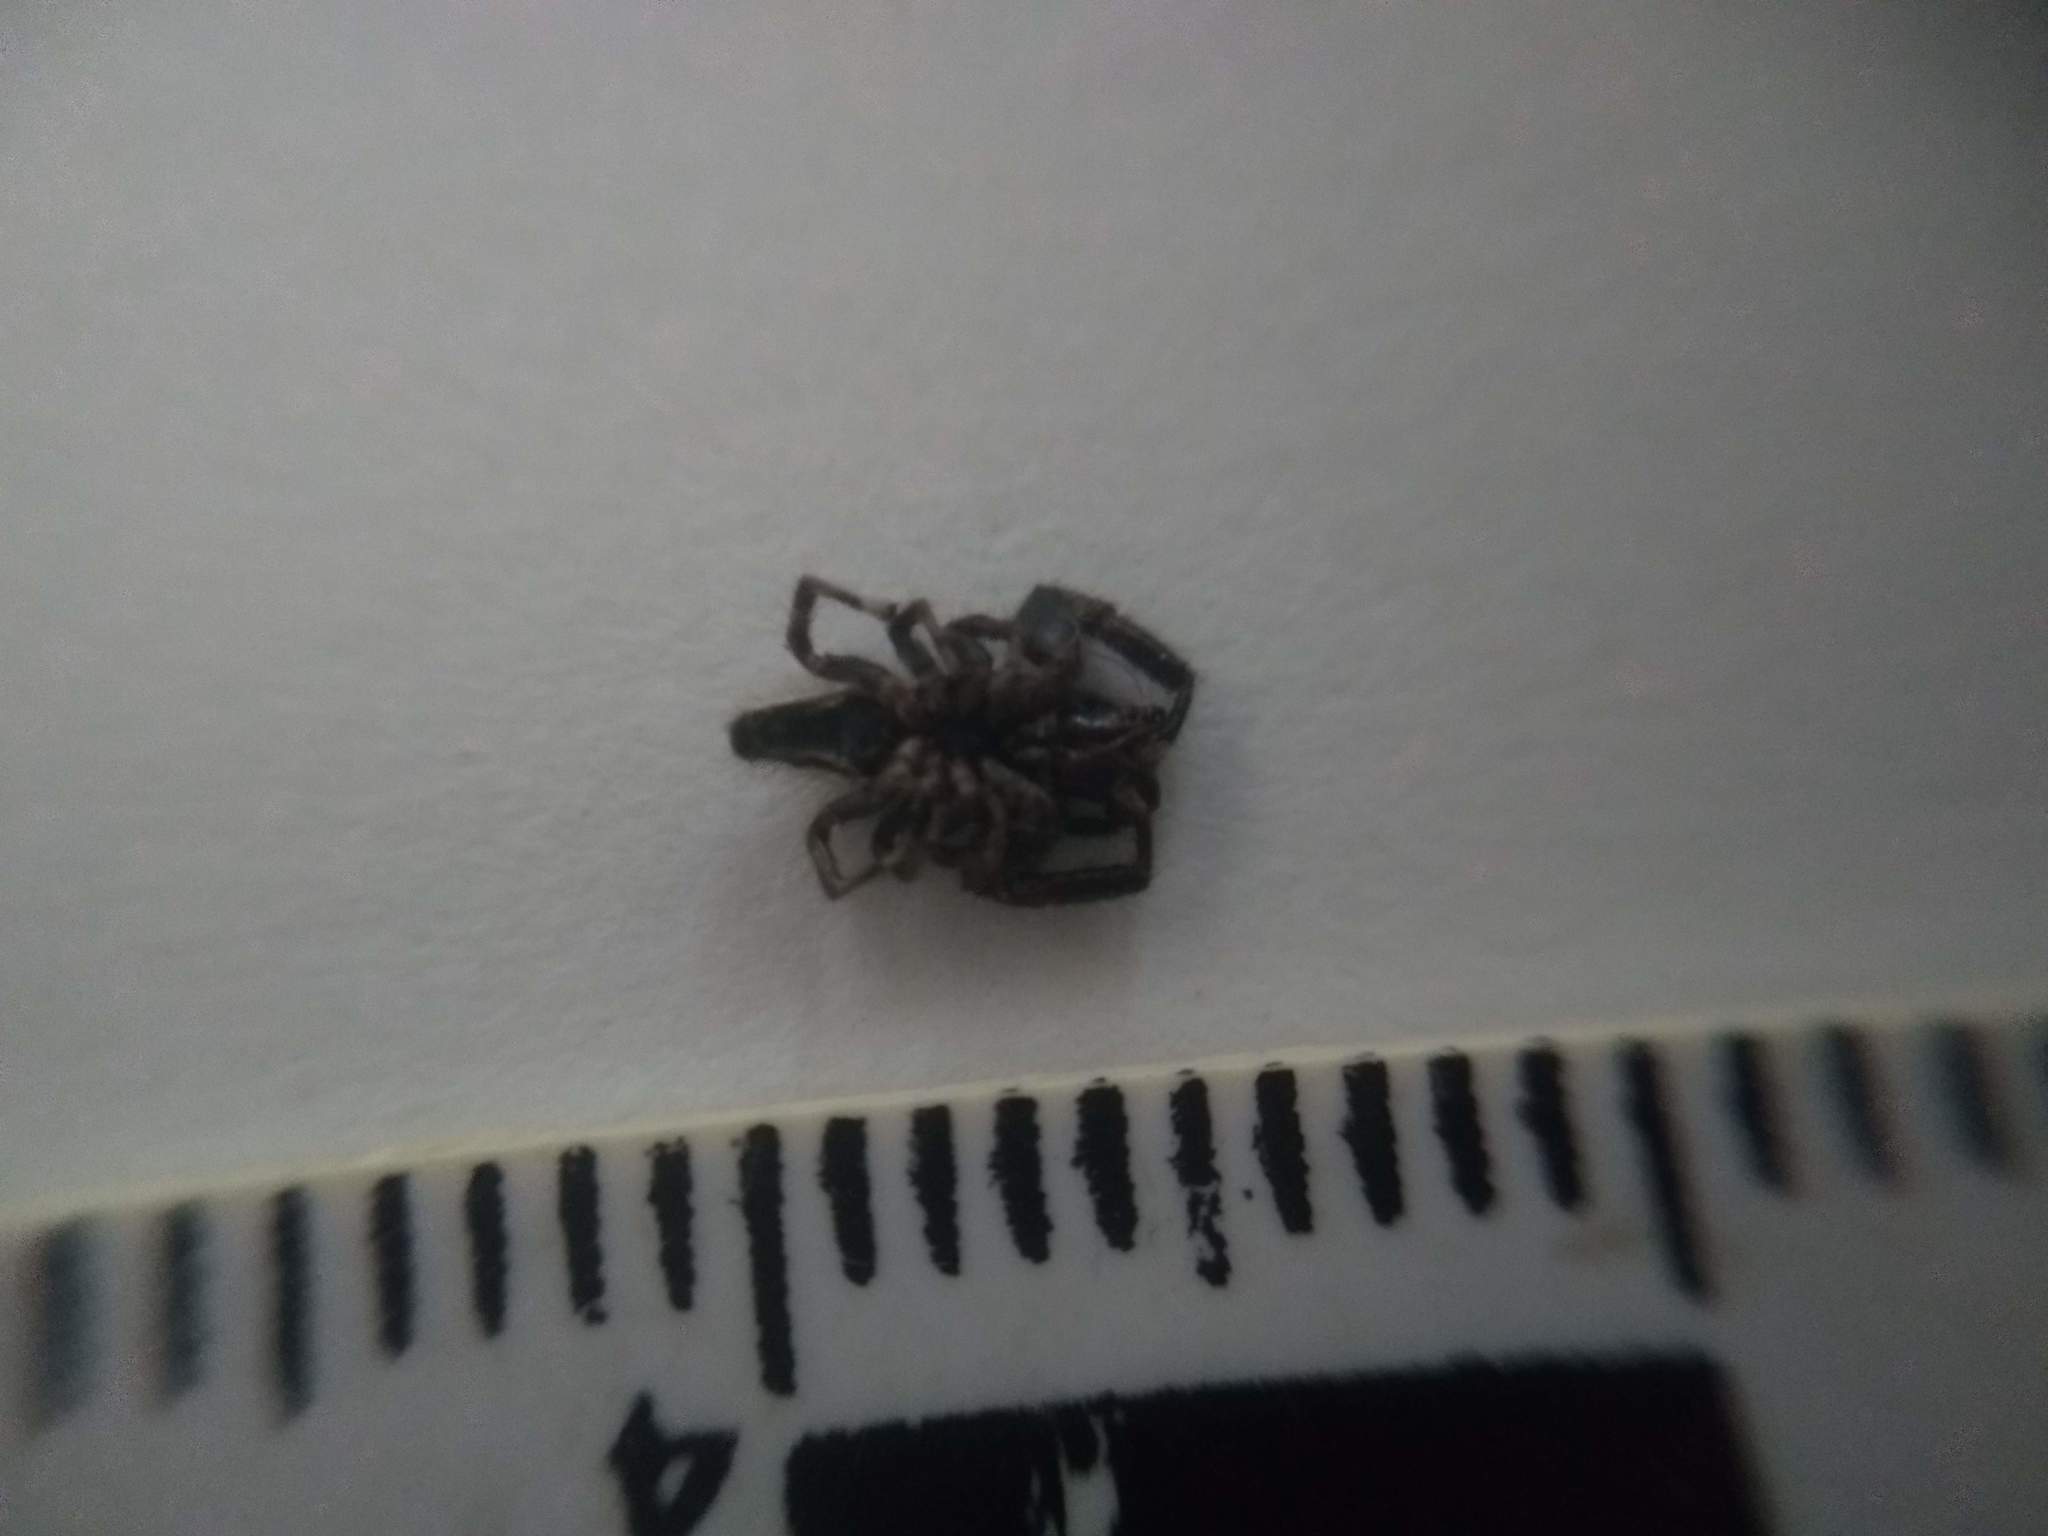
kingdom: Animalia
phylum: Arthropoda
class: Arachnida
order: Araneae
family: Salticidae
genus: Dendryphantes
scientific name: Dendryphantes mordax
